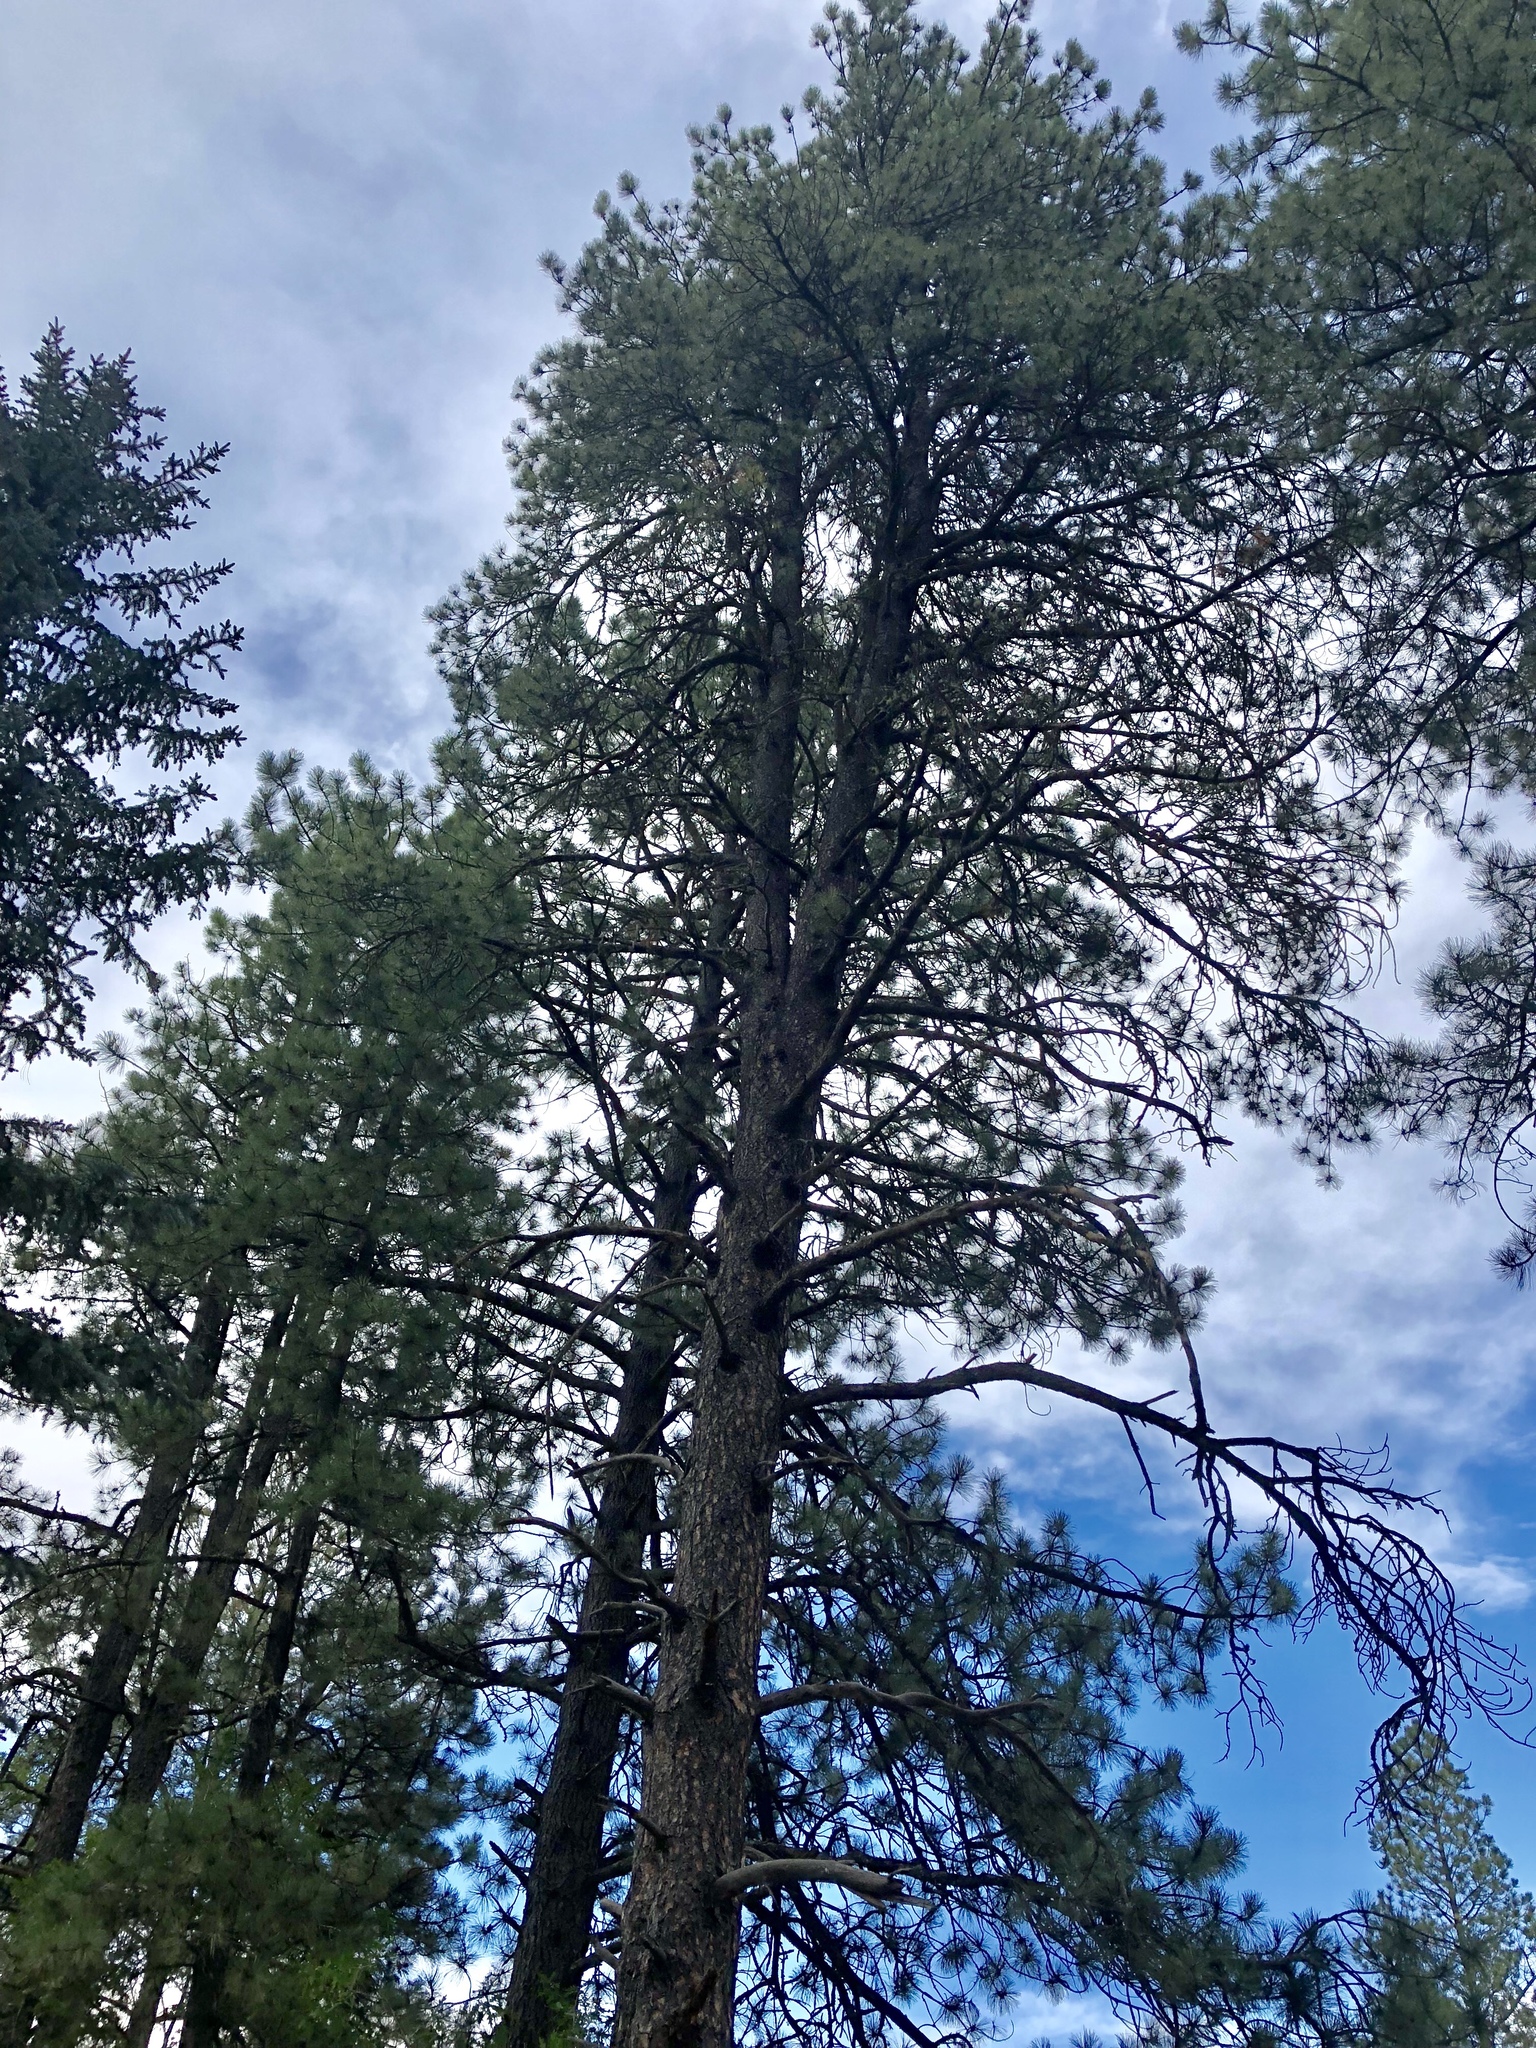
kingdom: Plantae
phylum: Tracheophyta
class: Pinopsida
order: Pinales
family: Pinaceae
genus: Pinus
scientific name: Pinus ponderosa
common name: Western yellow-pine
